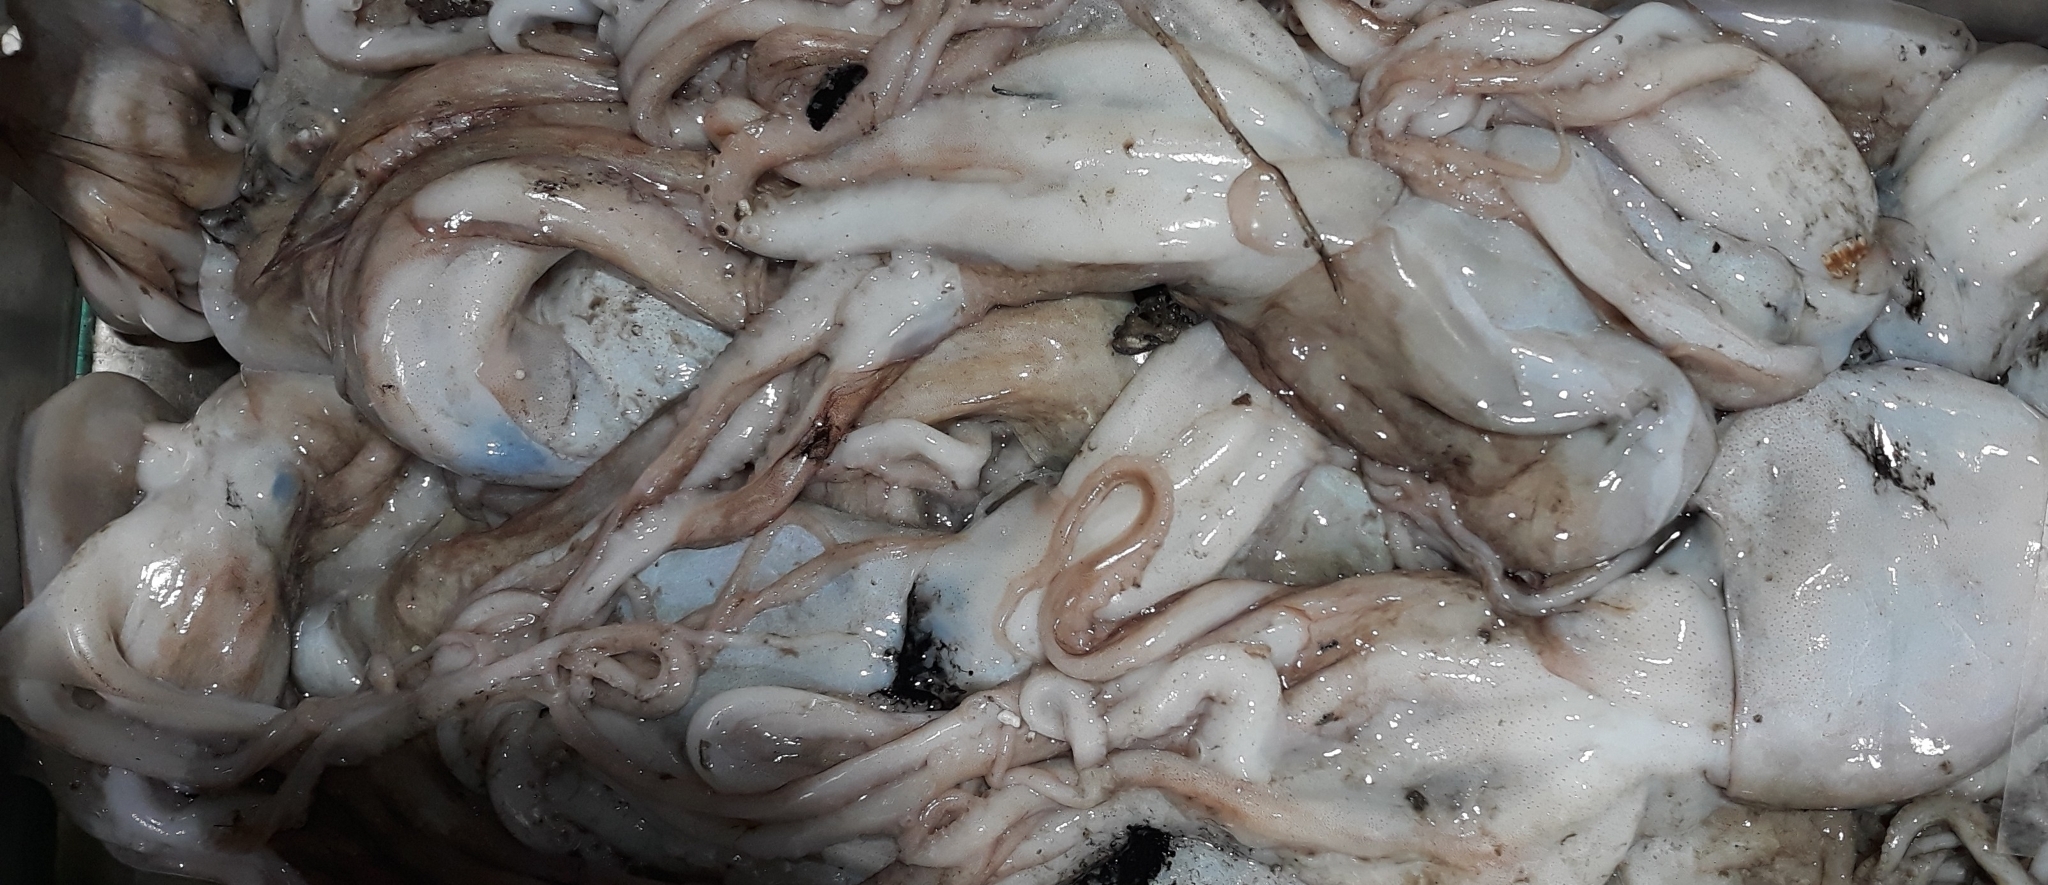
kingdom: Animalia
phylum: Mollusca
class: Cephalopoda
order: Octopoda
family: Eledonidae
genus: Eledone
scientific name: Eledone cirrhosa
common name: Curled octopus
